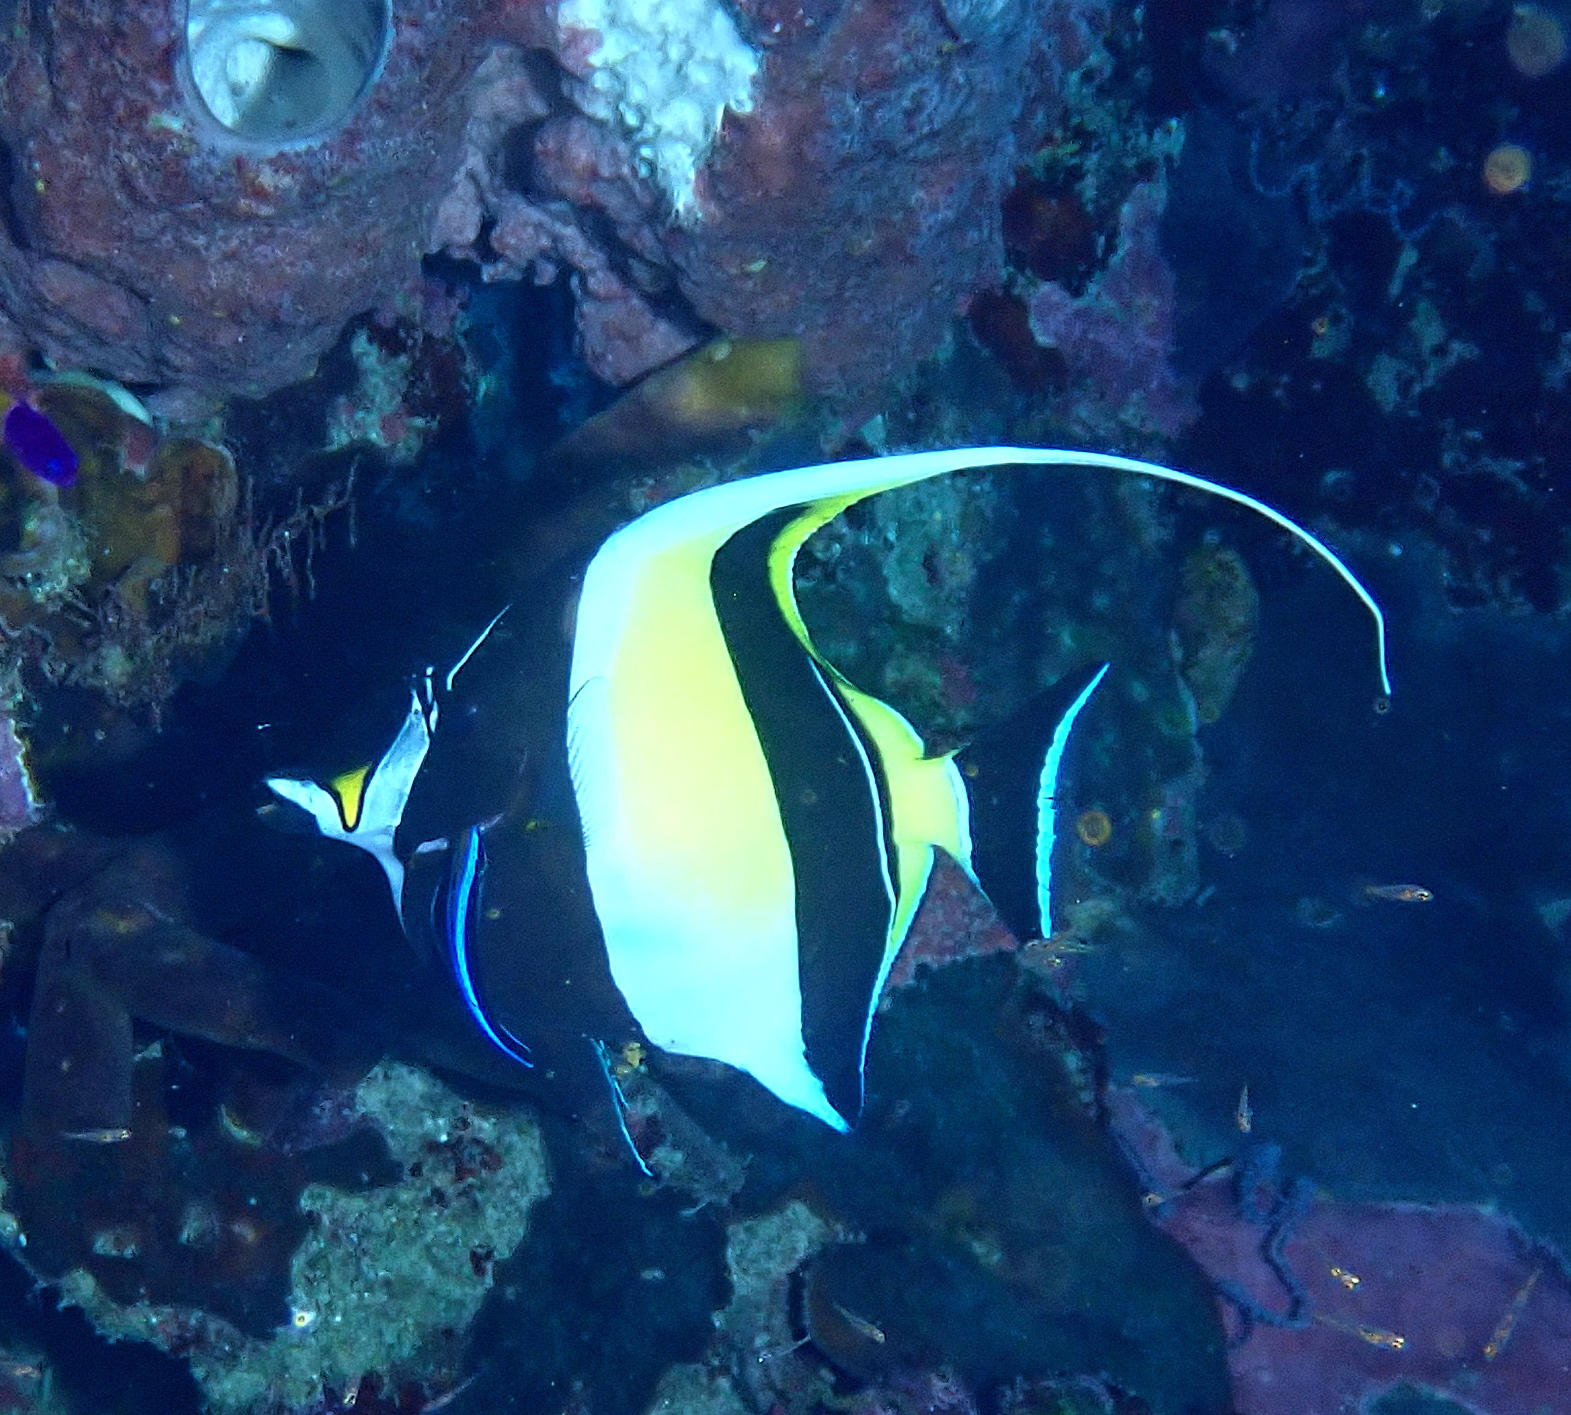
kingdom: Animalia
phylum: Chordata
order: Perciformes
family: Zanclidae
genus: Zanclus
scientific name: Zanclus cornutus
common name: Moorish idol
